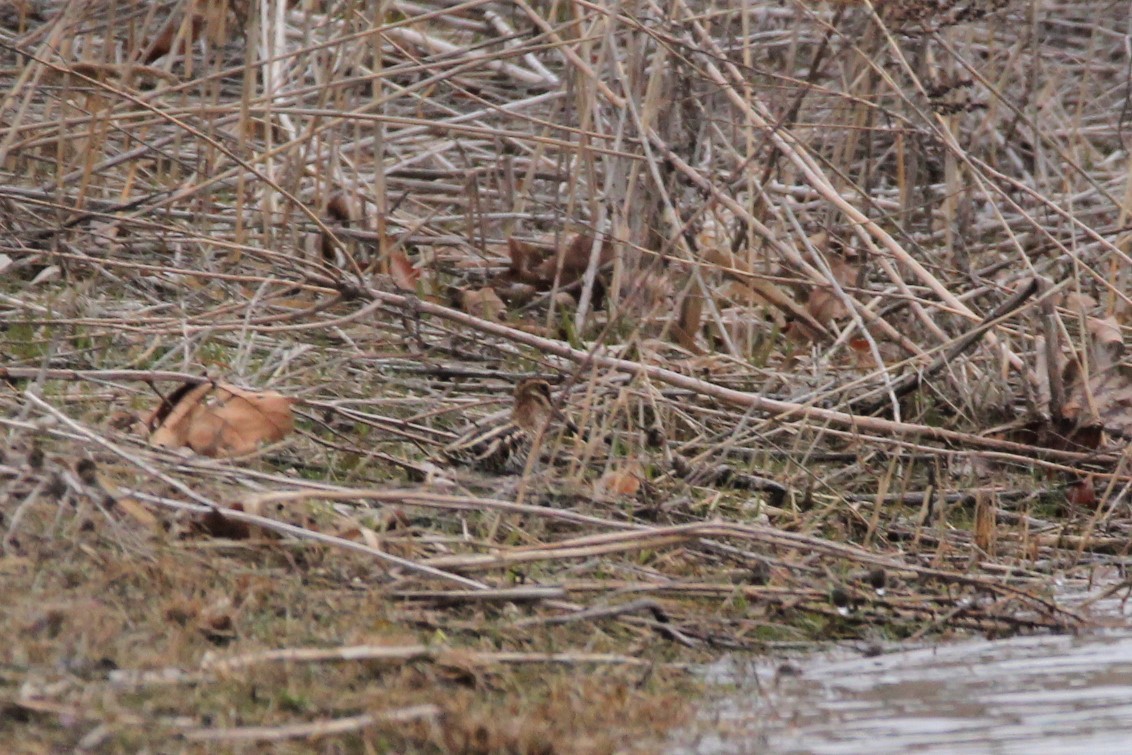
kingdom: Animalia
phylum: Chordata
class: Aves
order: Charadriiformes
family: Scolopacidae
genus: Gallinago
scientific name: Gallinago delicata
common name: Wilson's snipe
